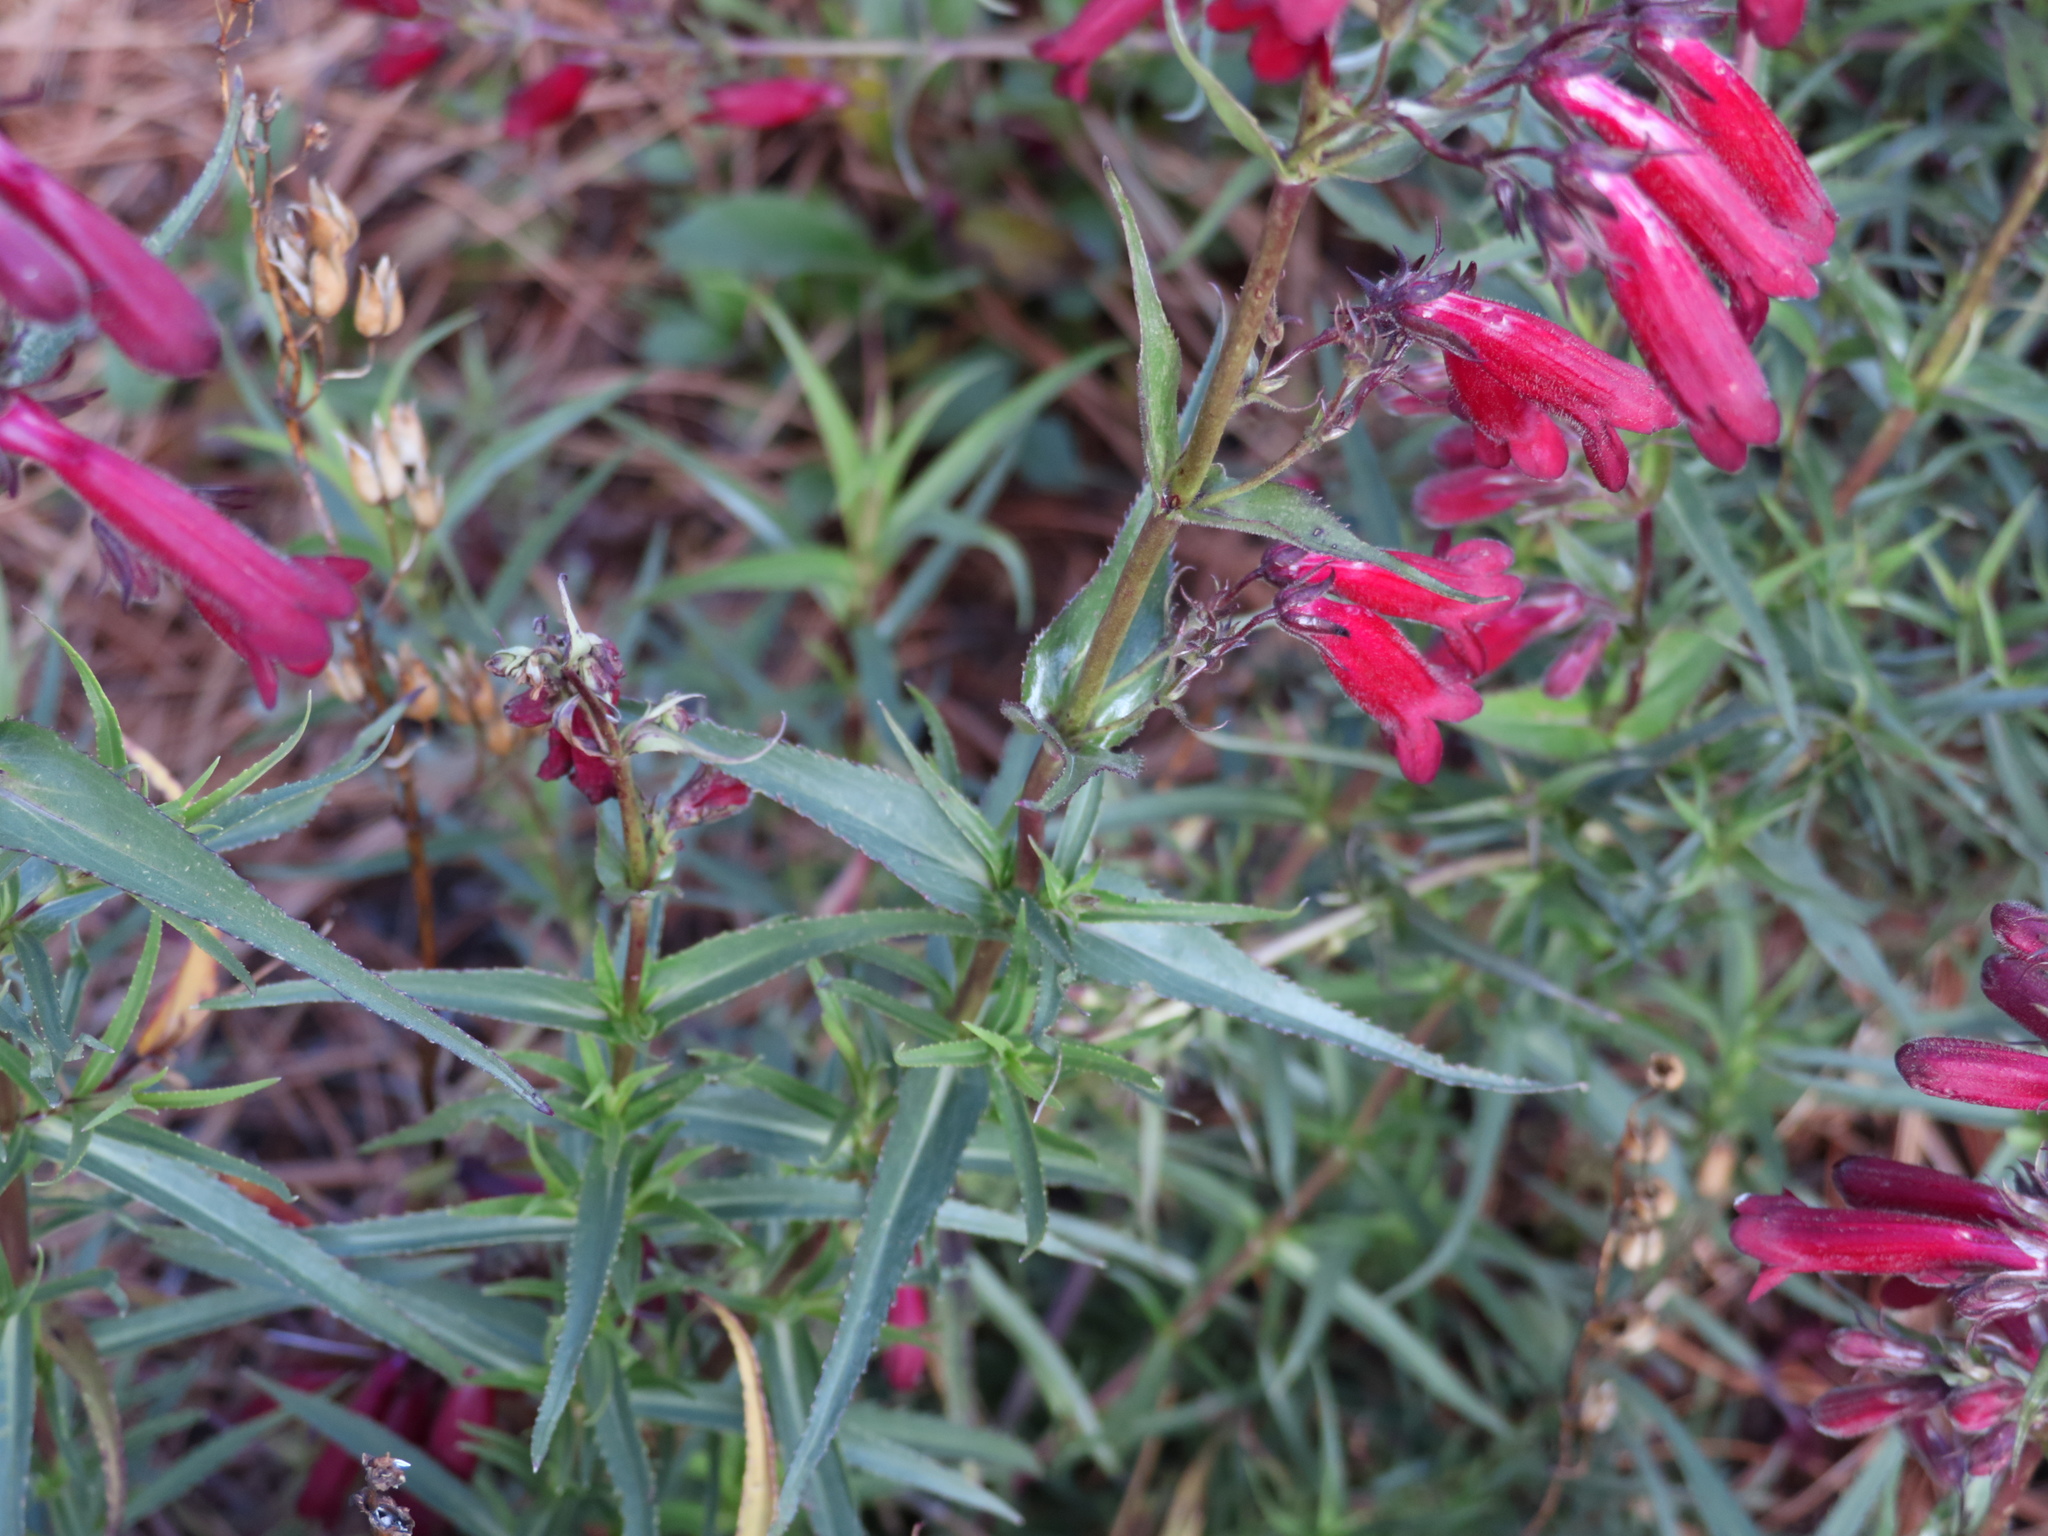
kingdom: Plantae
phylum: Tracheophyta
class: Magnoliopsida
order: Lamiales
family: Plantaginaceae
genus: Penstemon
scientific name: Penstemon roseus
